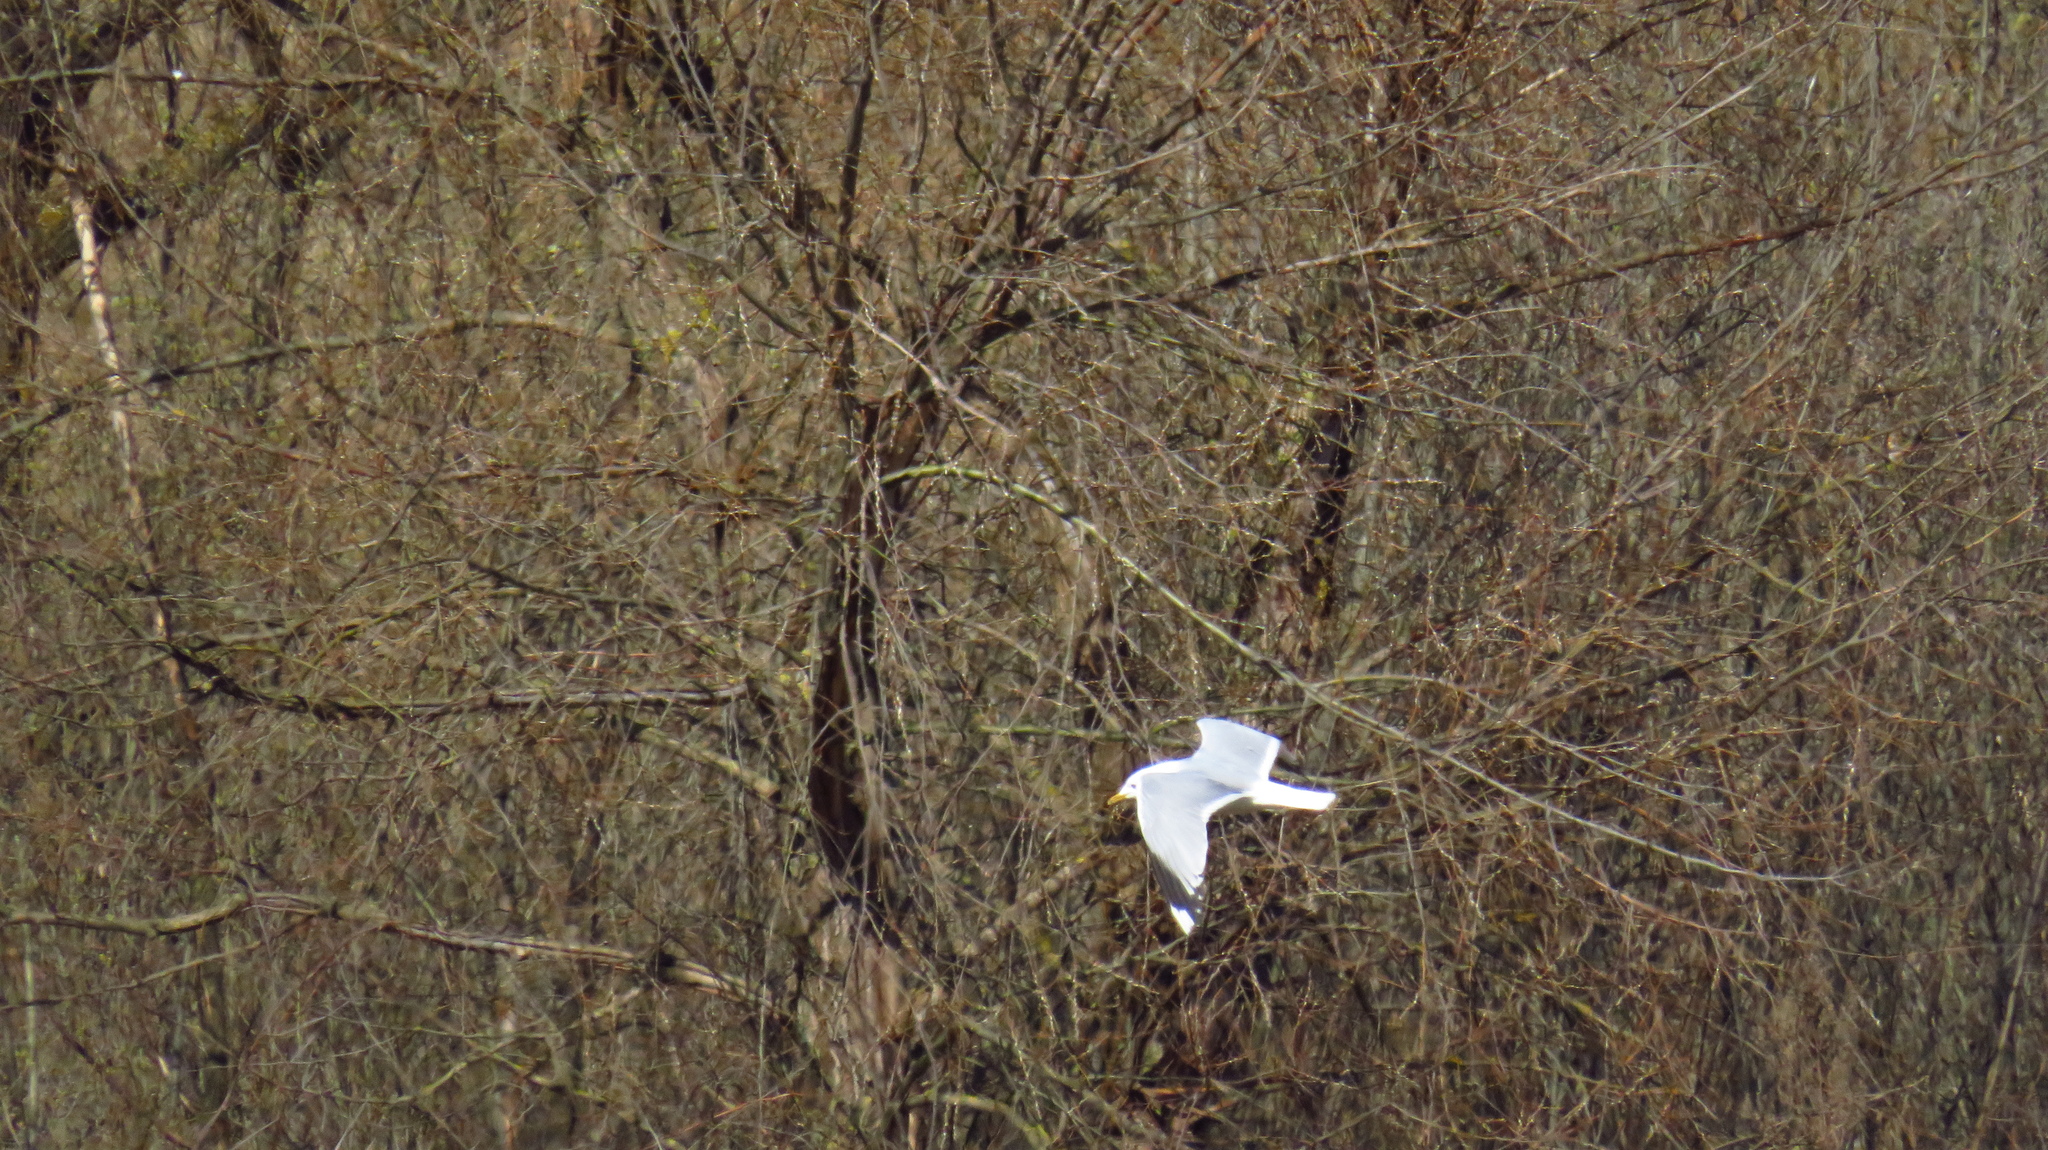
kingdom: Animalia
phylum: Chordata
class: Aves
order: Charadriiformes
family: Laridae
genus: Larus
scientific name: Larus canus
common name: Mew gull
